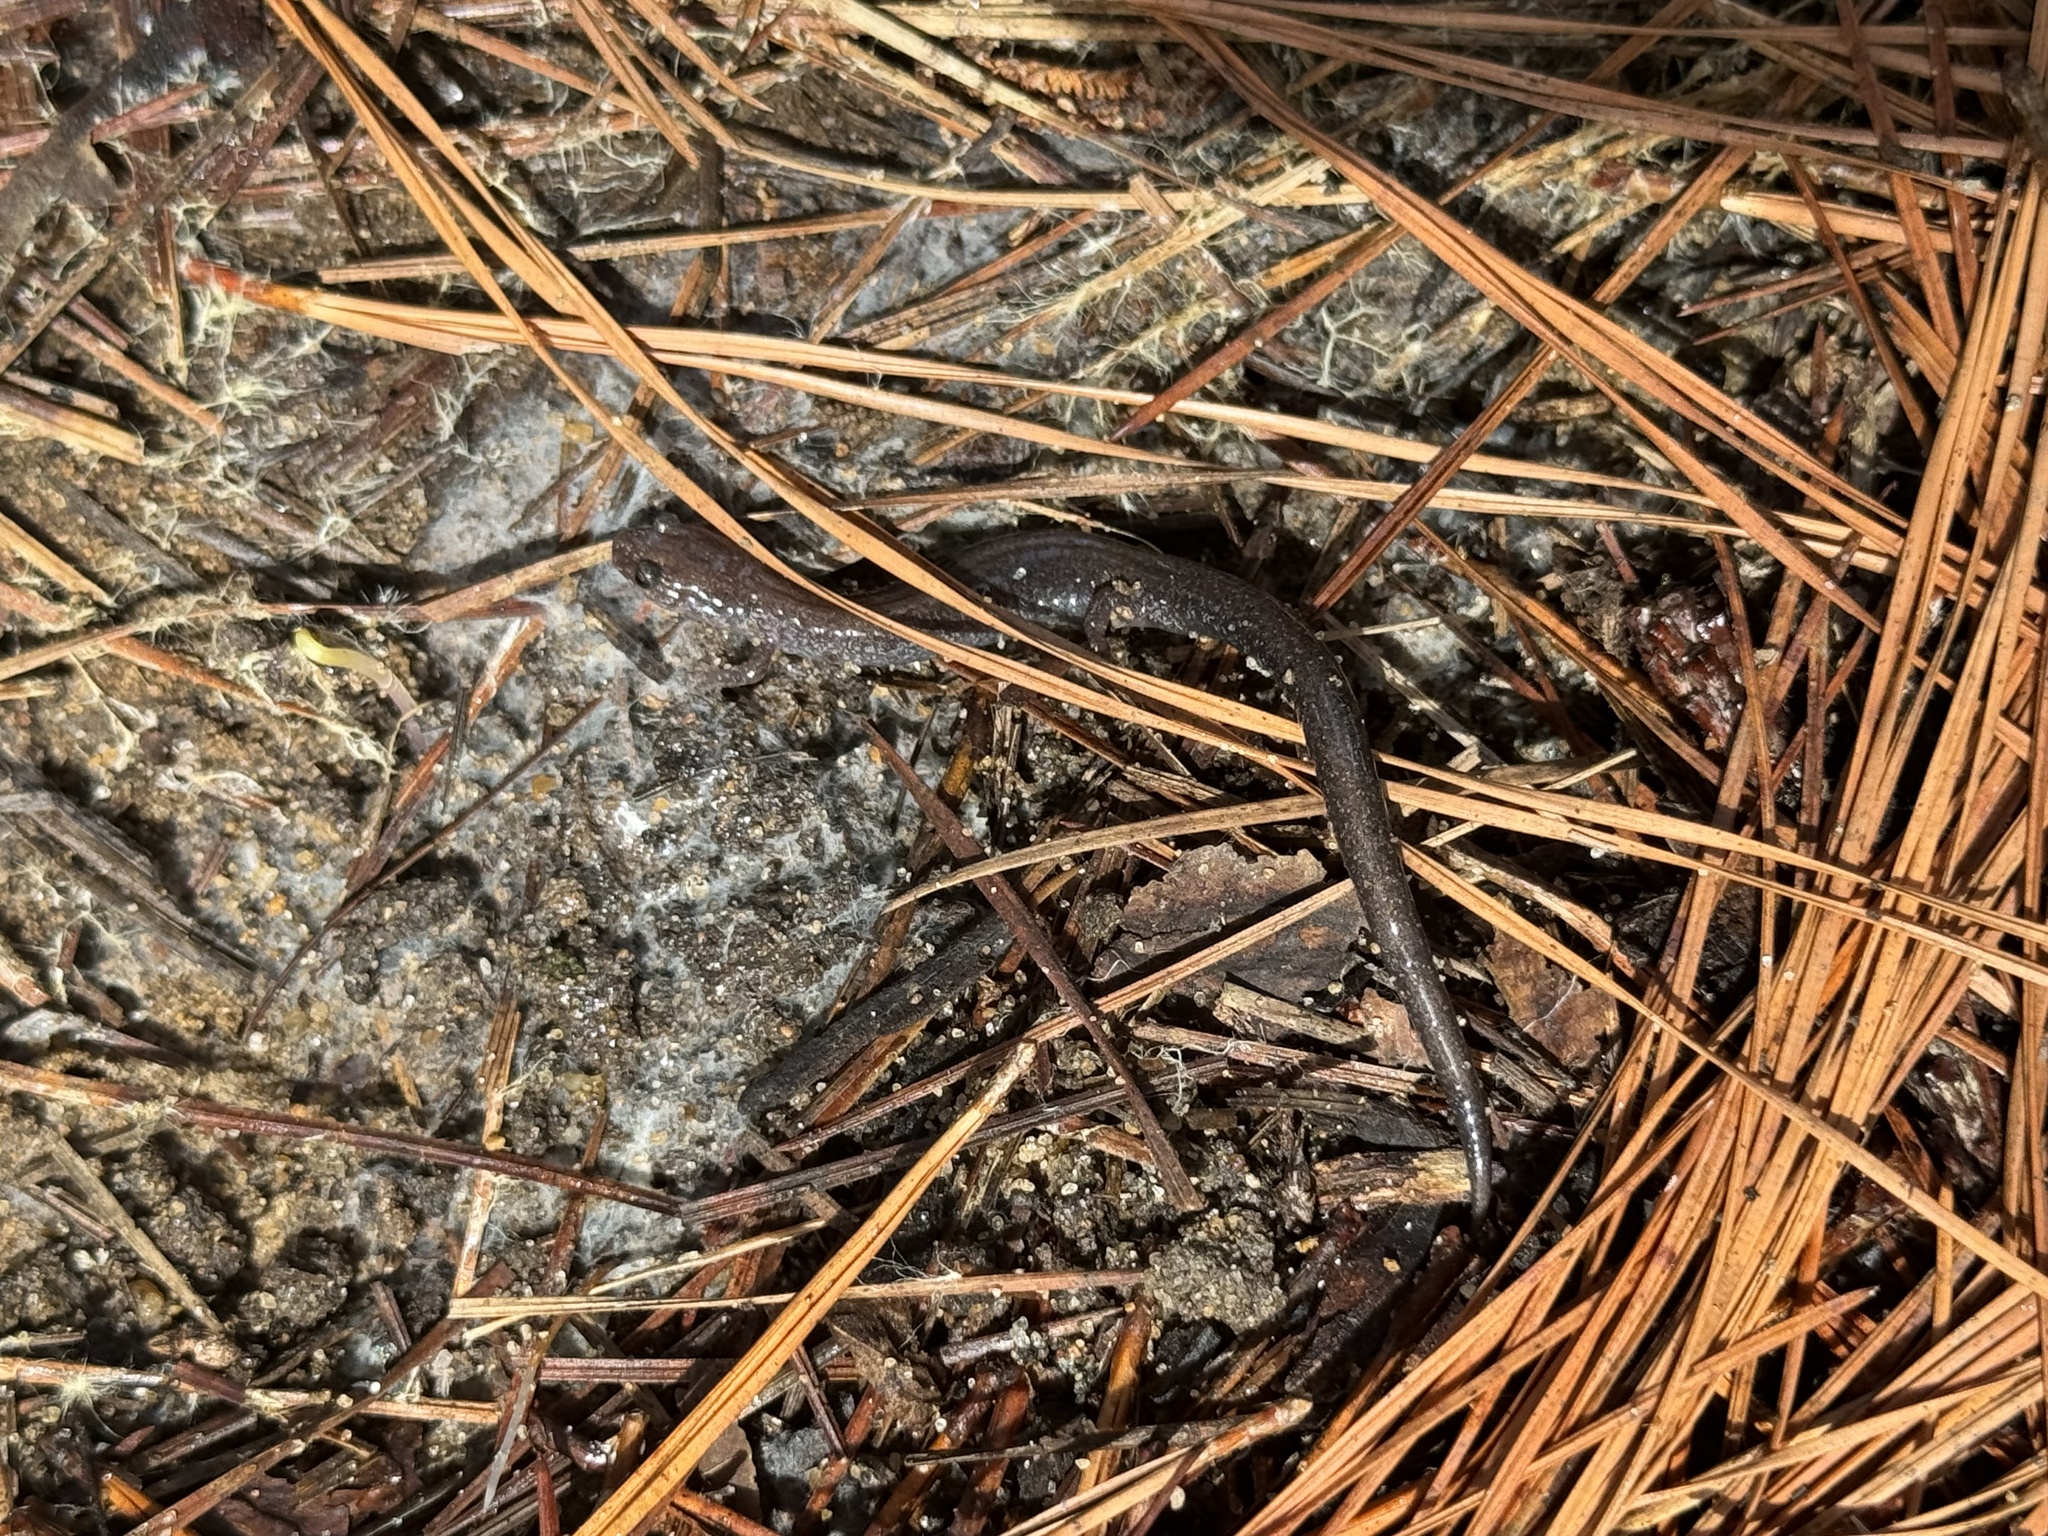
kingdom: Animalia
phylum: Chordata
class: Amphibia
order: Caudata
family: Plethodontidae
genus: Plethodon
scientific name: Plethodon cinereus
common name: Redback salamander
